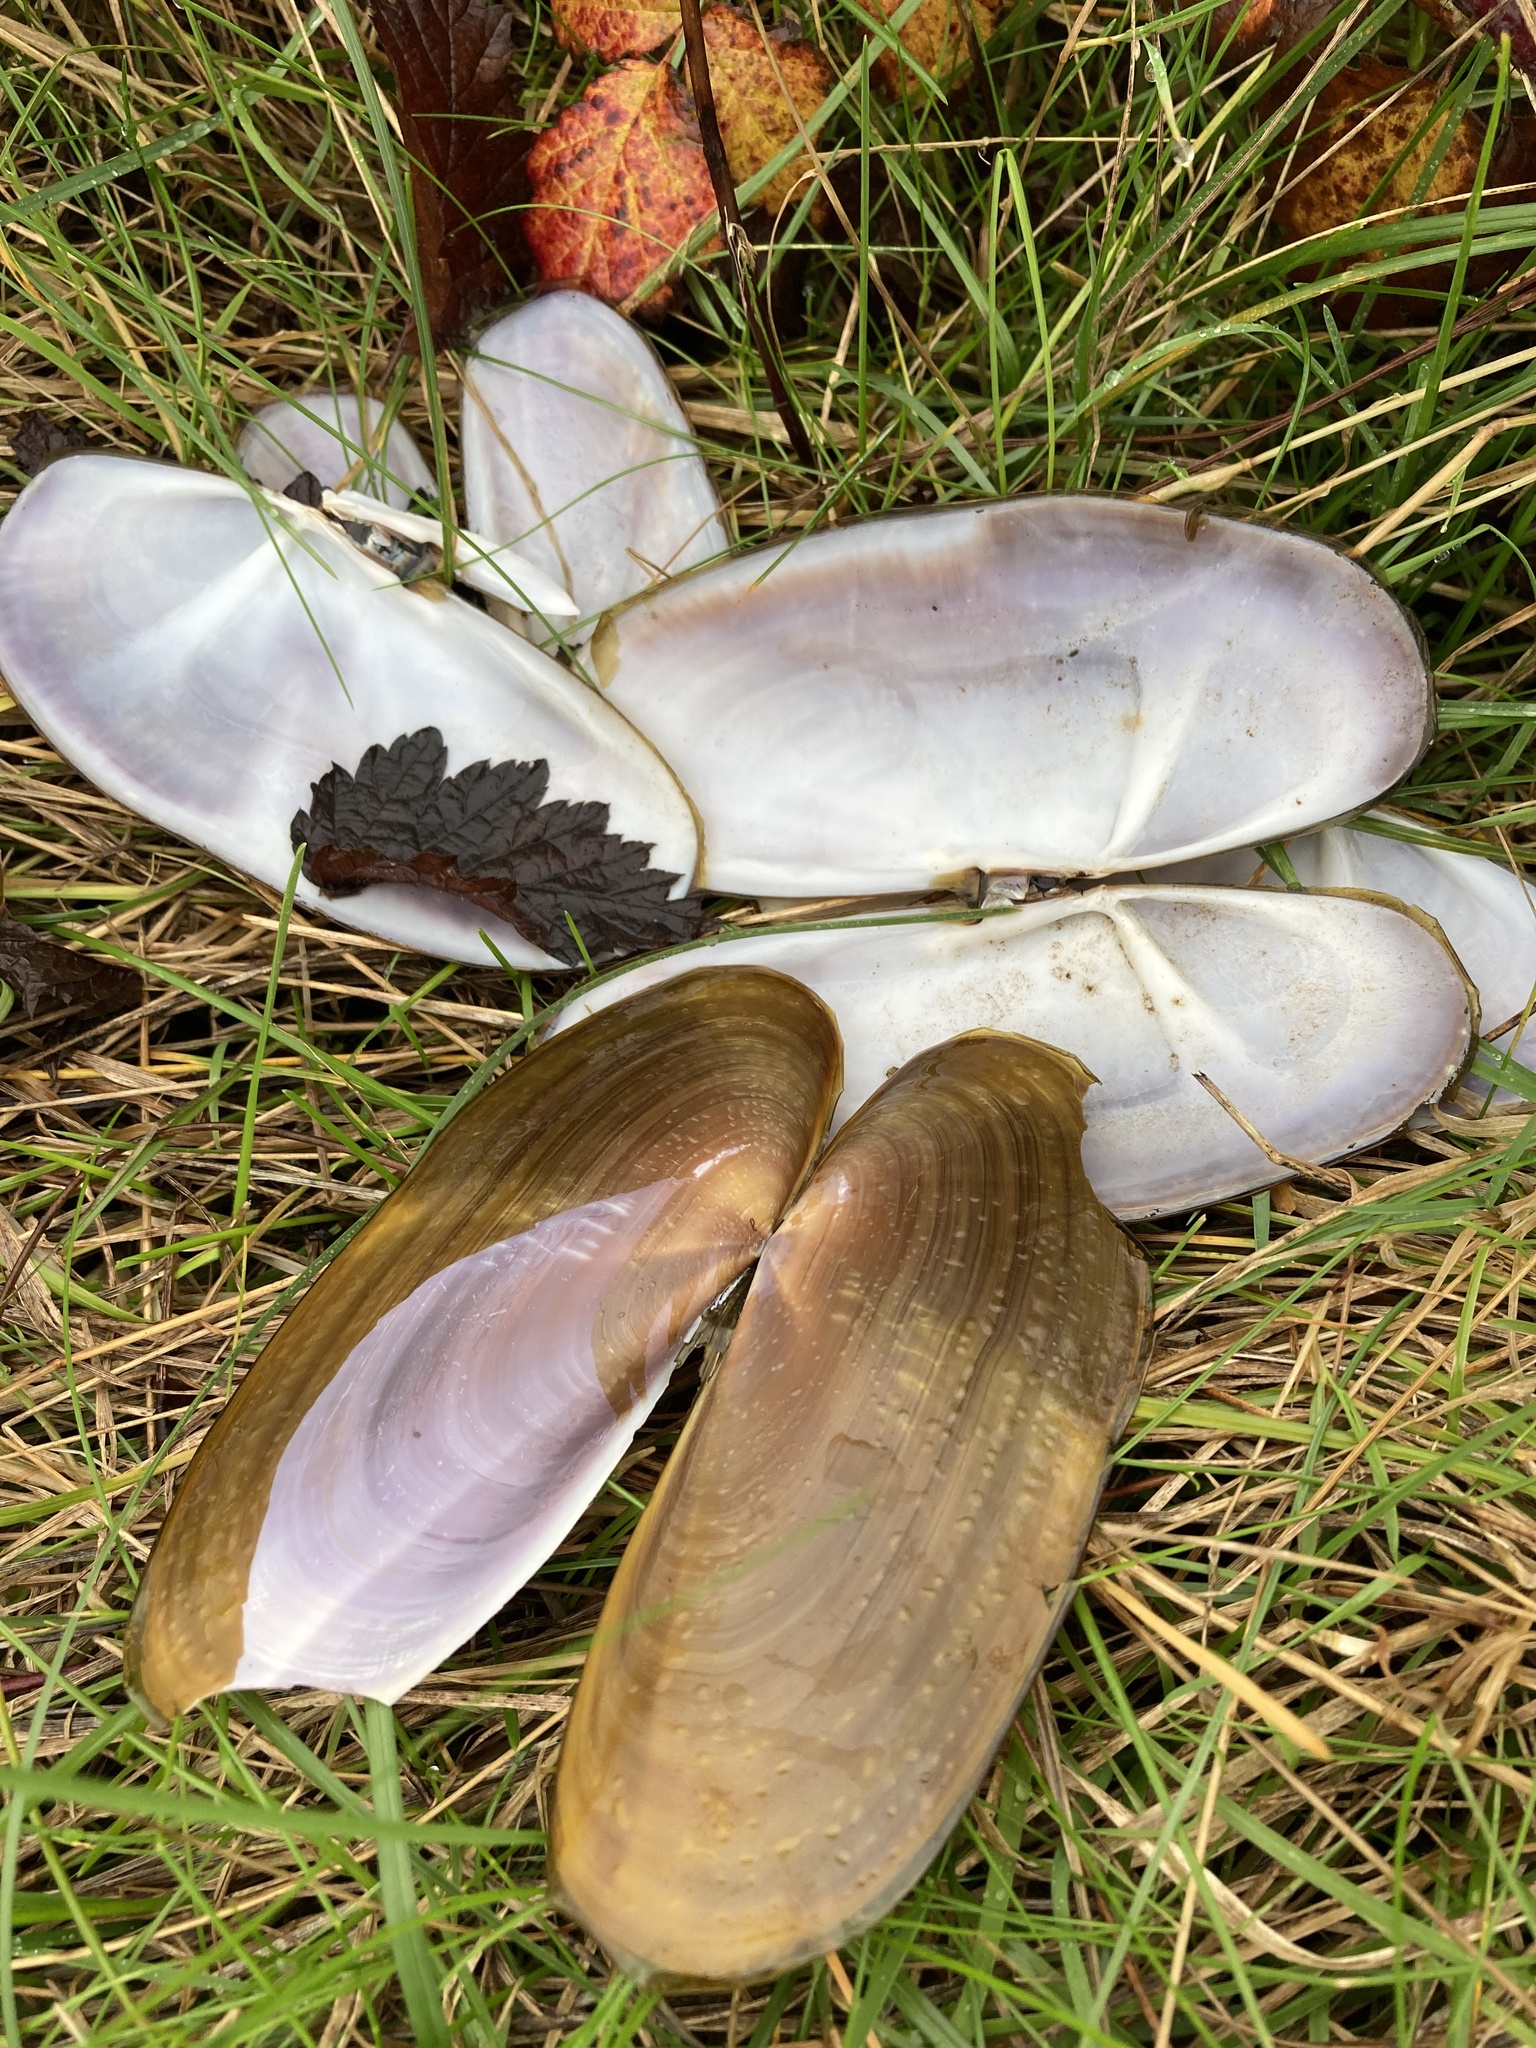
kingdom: Animalia
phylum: Mollusca
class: Bivalvia
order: Adapedonta
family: Pharidae
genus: Siliqua
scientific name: Siliqua patula
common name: Pacific razor clam
